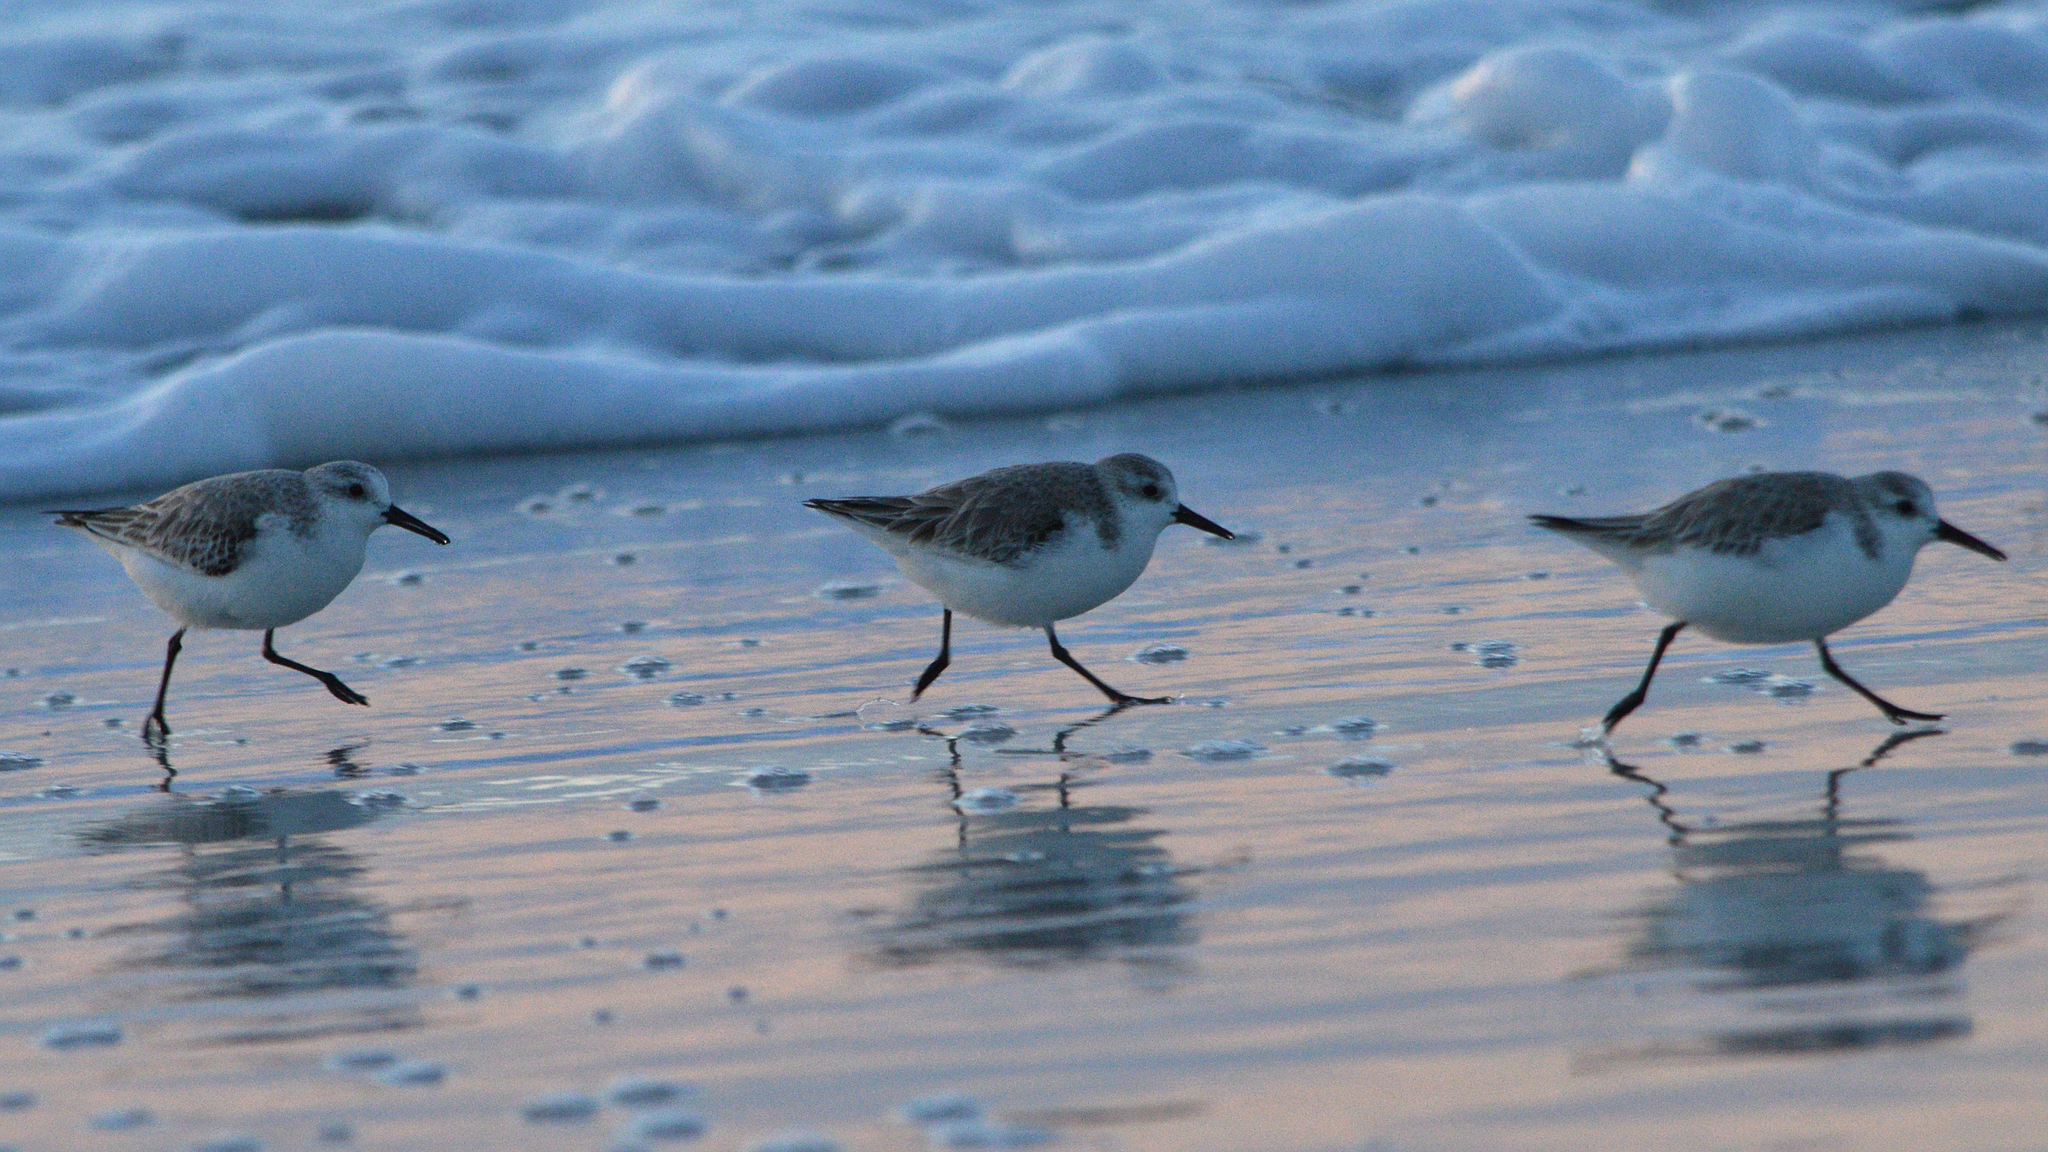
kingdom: Animalia
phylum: Chordata
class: Aves
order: Charadriiformes
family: Scolopacidae
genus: Calidris
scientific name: Calidris alba
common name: Sanderling
